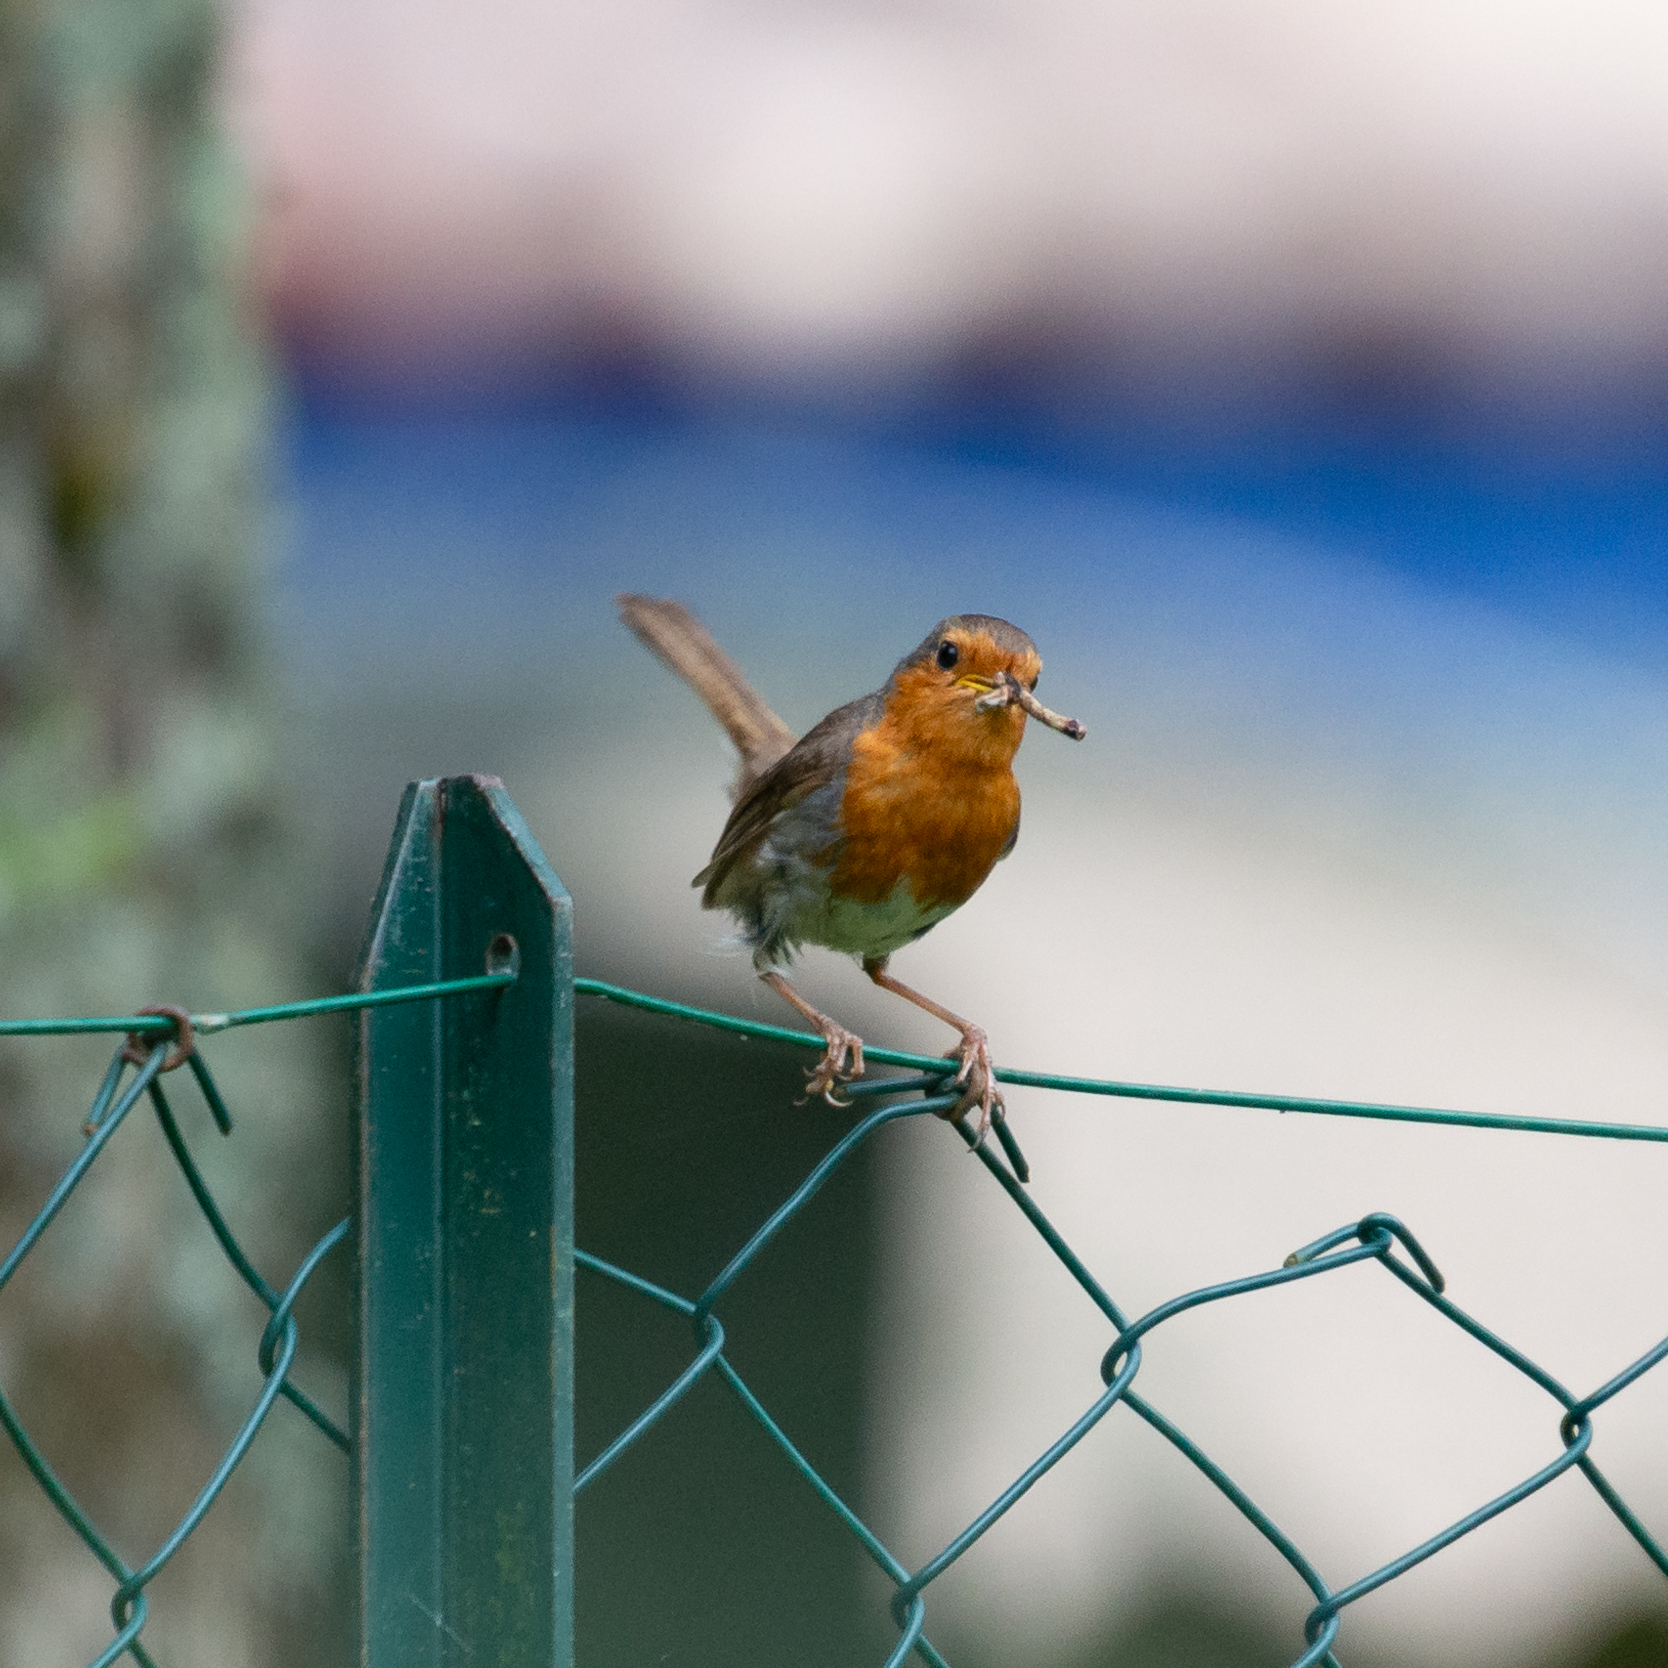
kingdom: Animalia
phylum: Chordata
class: Aves
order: Passeriformes
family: Muscicapidae
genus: Erithacus
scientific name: Erithacus rubecula
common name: European robin
